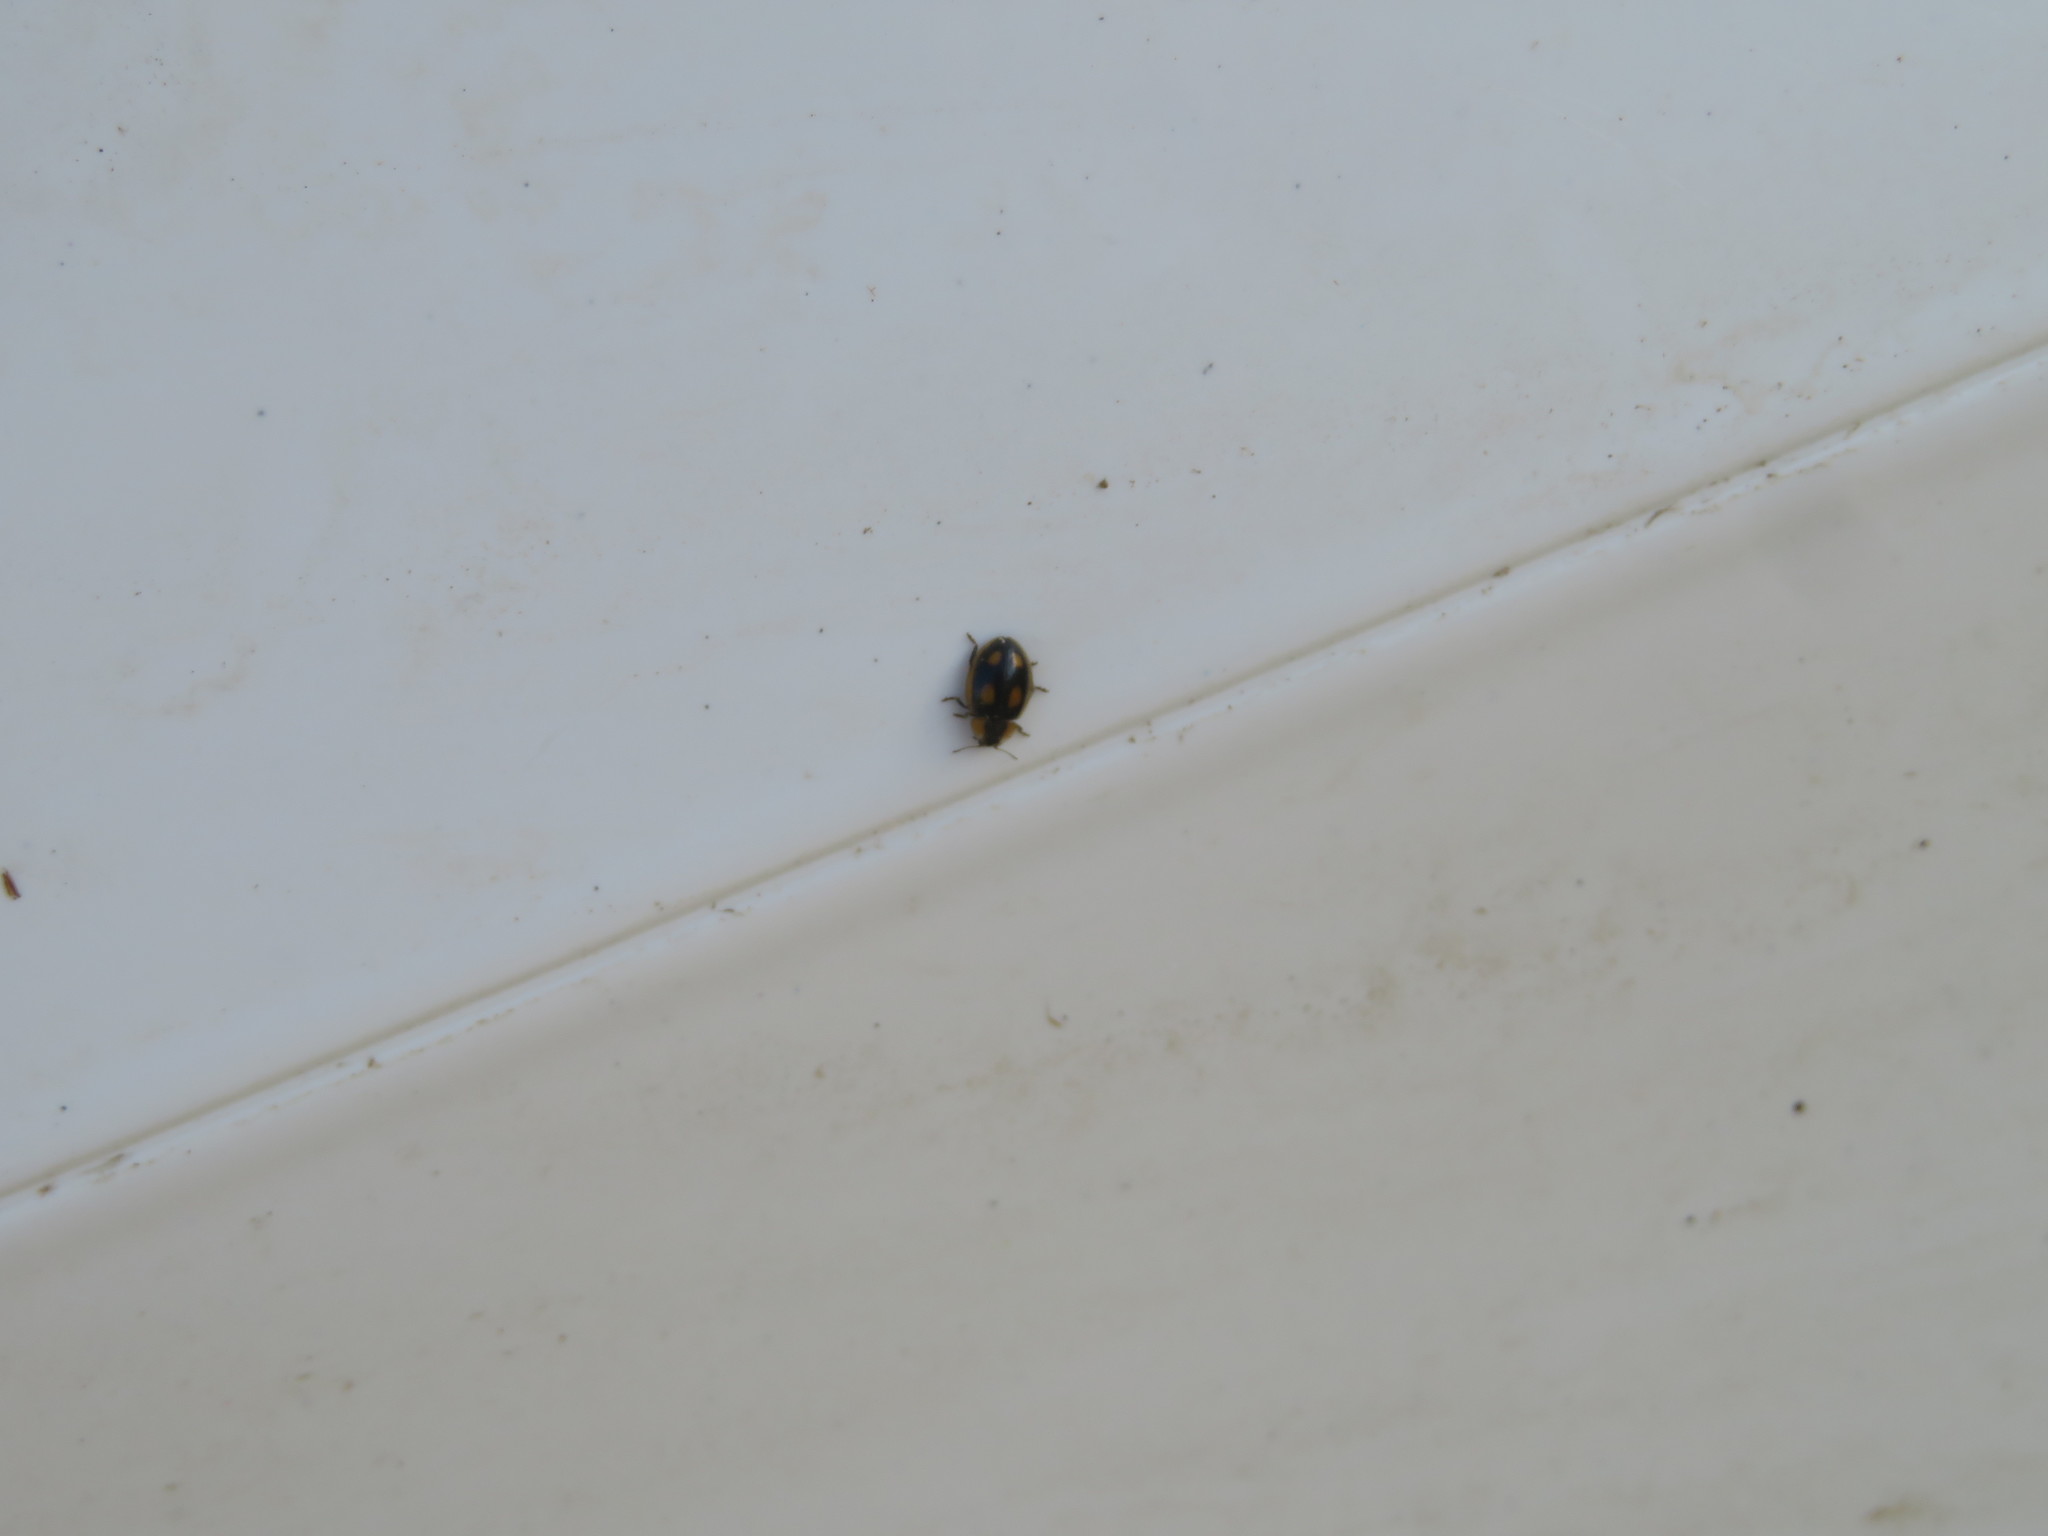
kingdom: Animalia
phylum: Arthropoda
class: Insecta
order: Coleoptera
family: Coccinellidae
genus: Hoangus
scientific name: Hoangus
